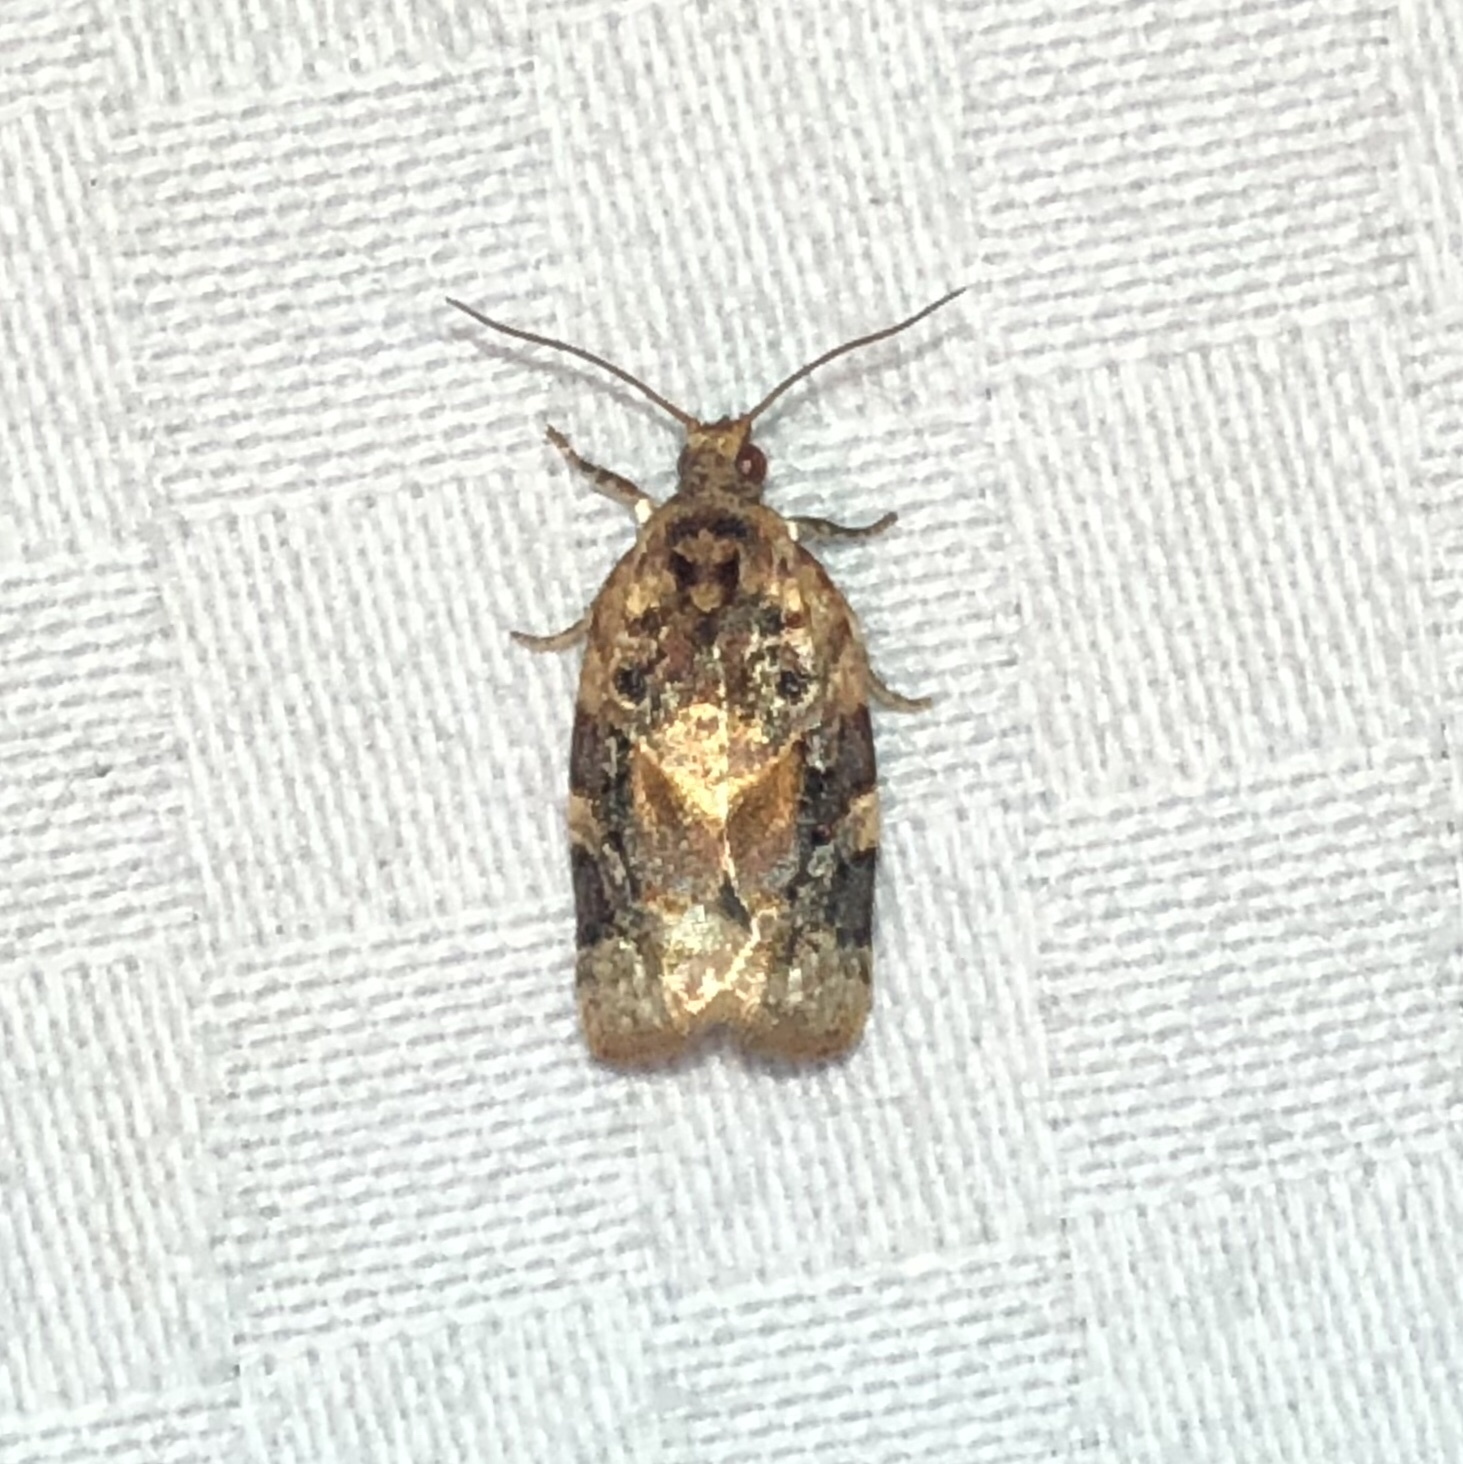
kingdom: Animalia
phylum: Arthropoda
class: Insecta
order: Lepidoptera
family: Tortricidae
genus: Argyrotaenia
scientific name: Argyrotaenia velutinana
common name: Red-banded leafroller moth
